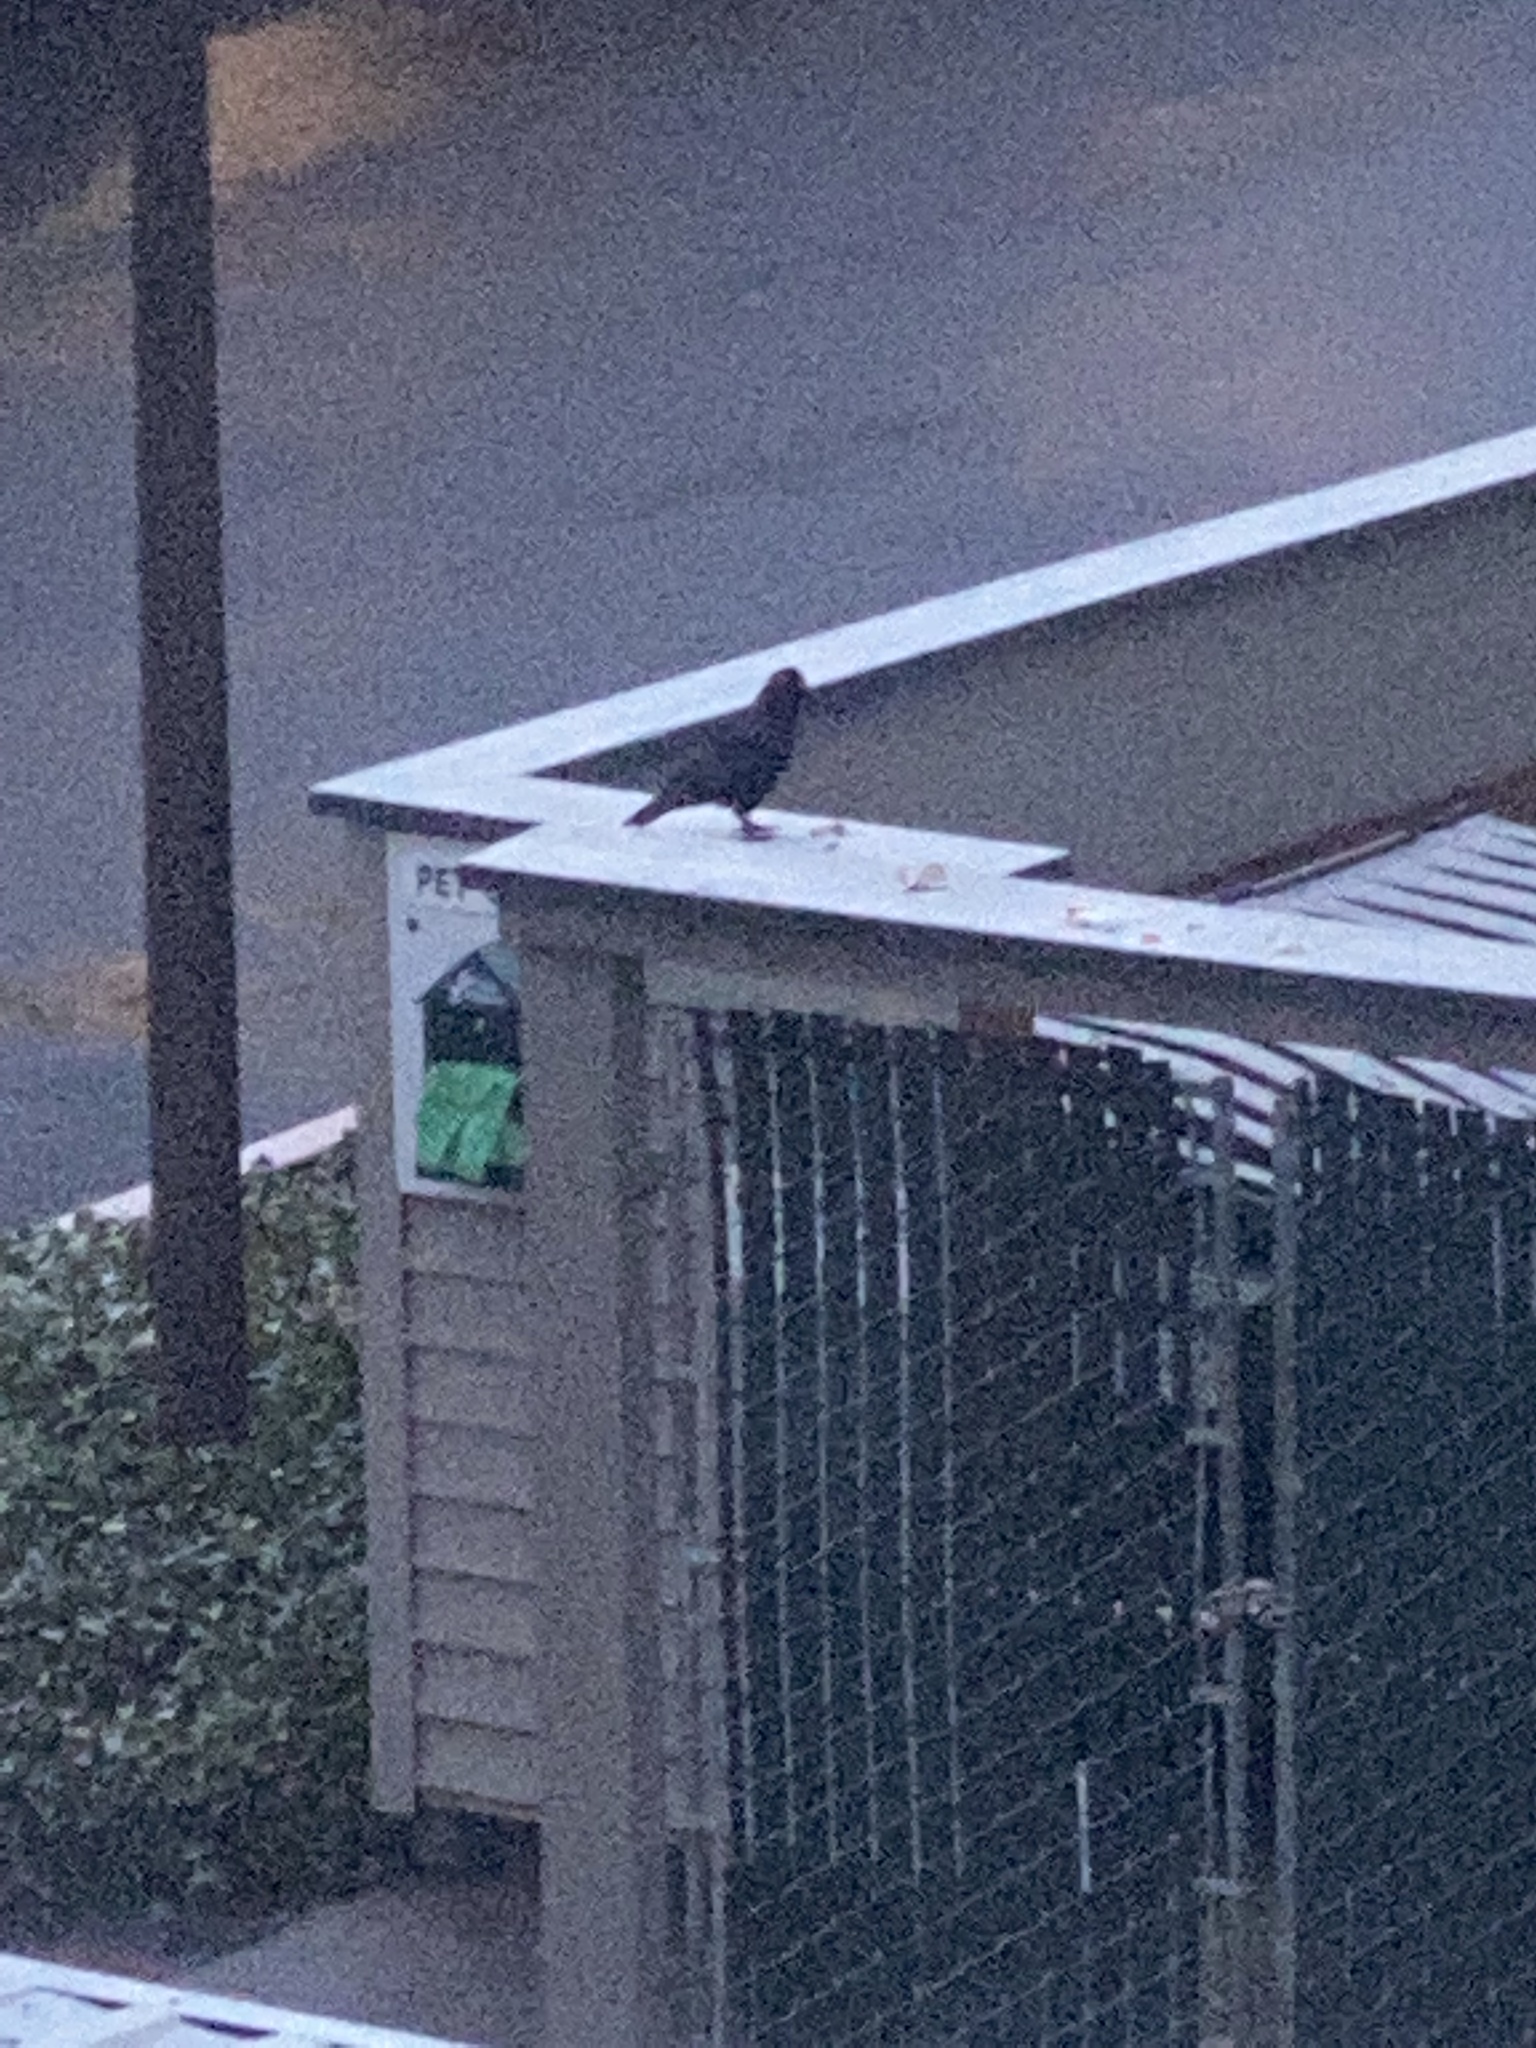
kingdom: Animalia
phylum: Chordata
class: Aves
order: Passeriformes
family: Corvidae
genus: Corvus
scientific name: Corvus brachyrhynchos
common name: American crow
